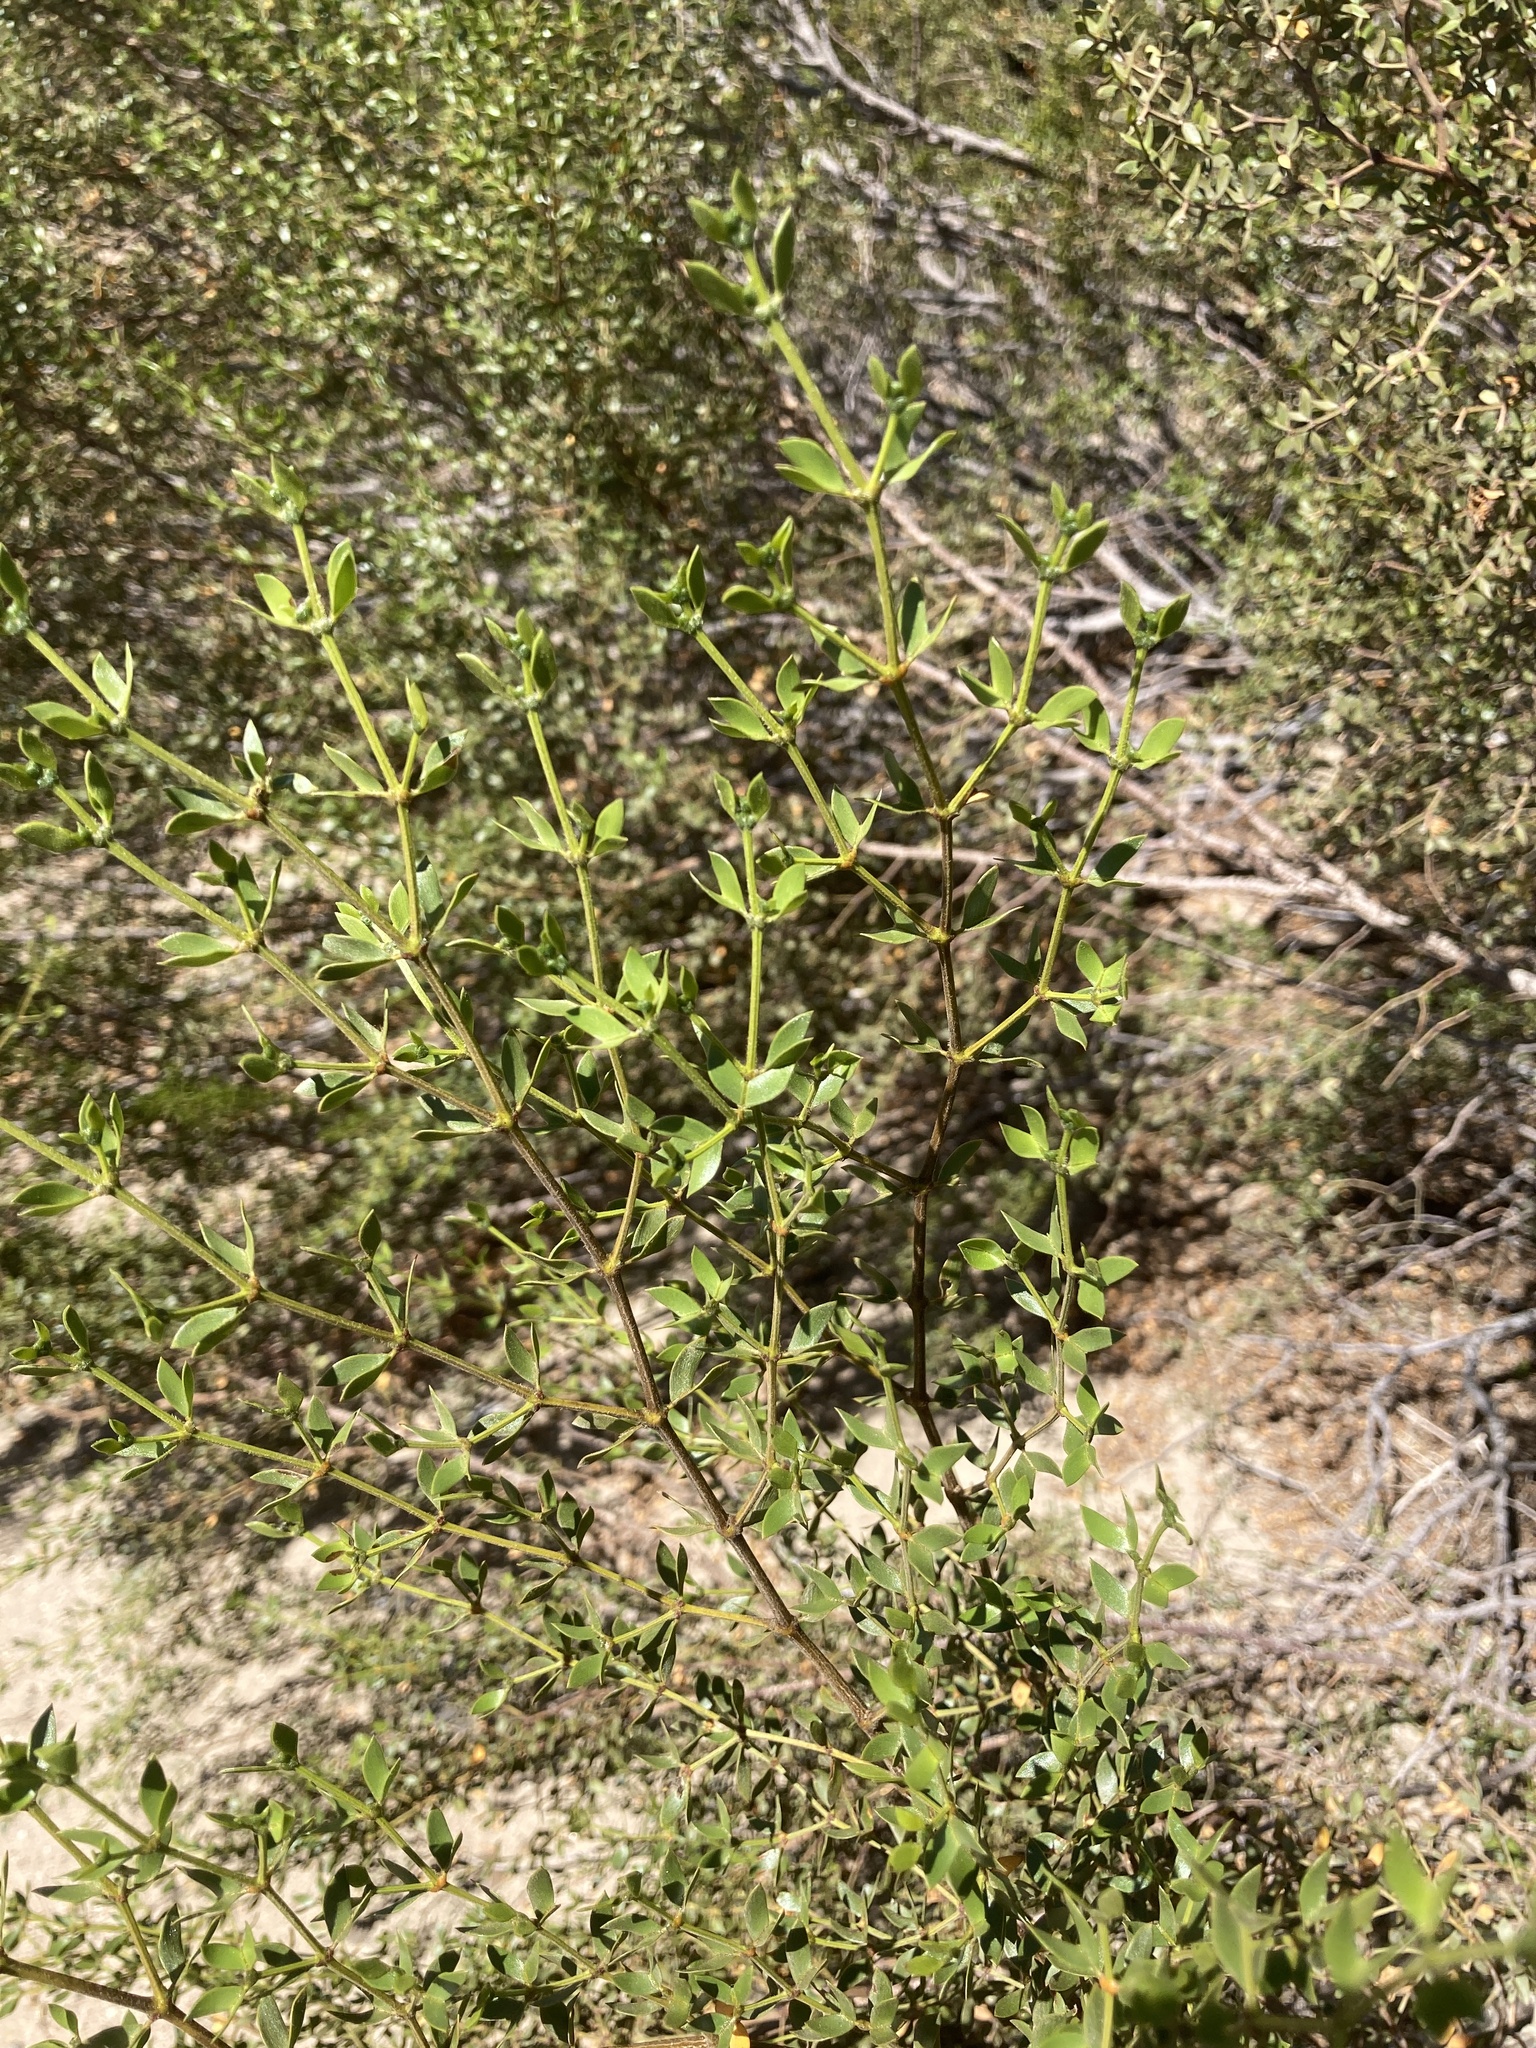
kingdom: Plantae
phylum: Tracheophyta
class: Magnoliopsida
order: Zygophyllales
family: Zygophyllaceae
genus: Larrea
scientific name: Larrea divaricata
